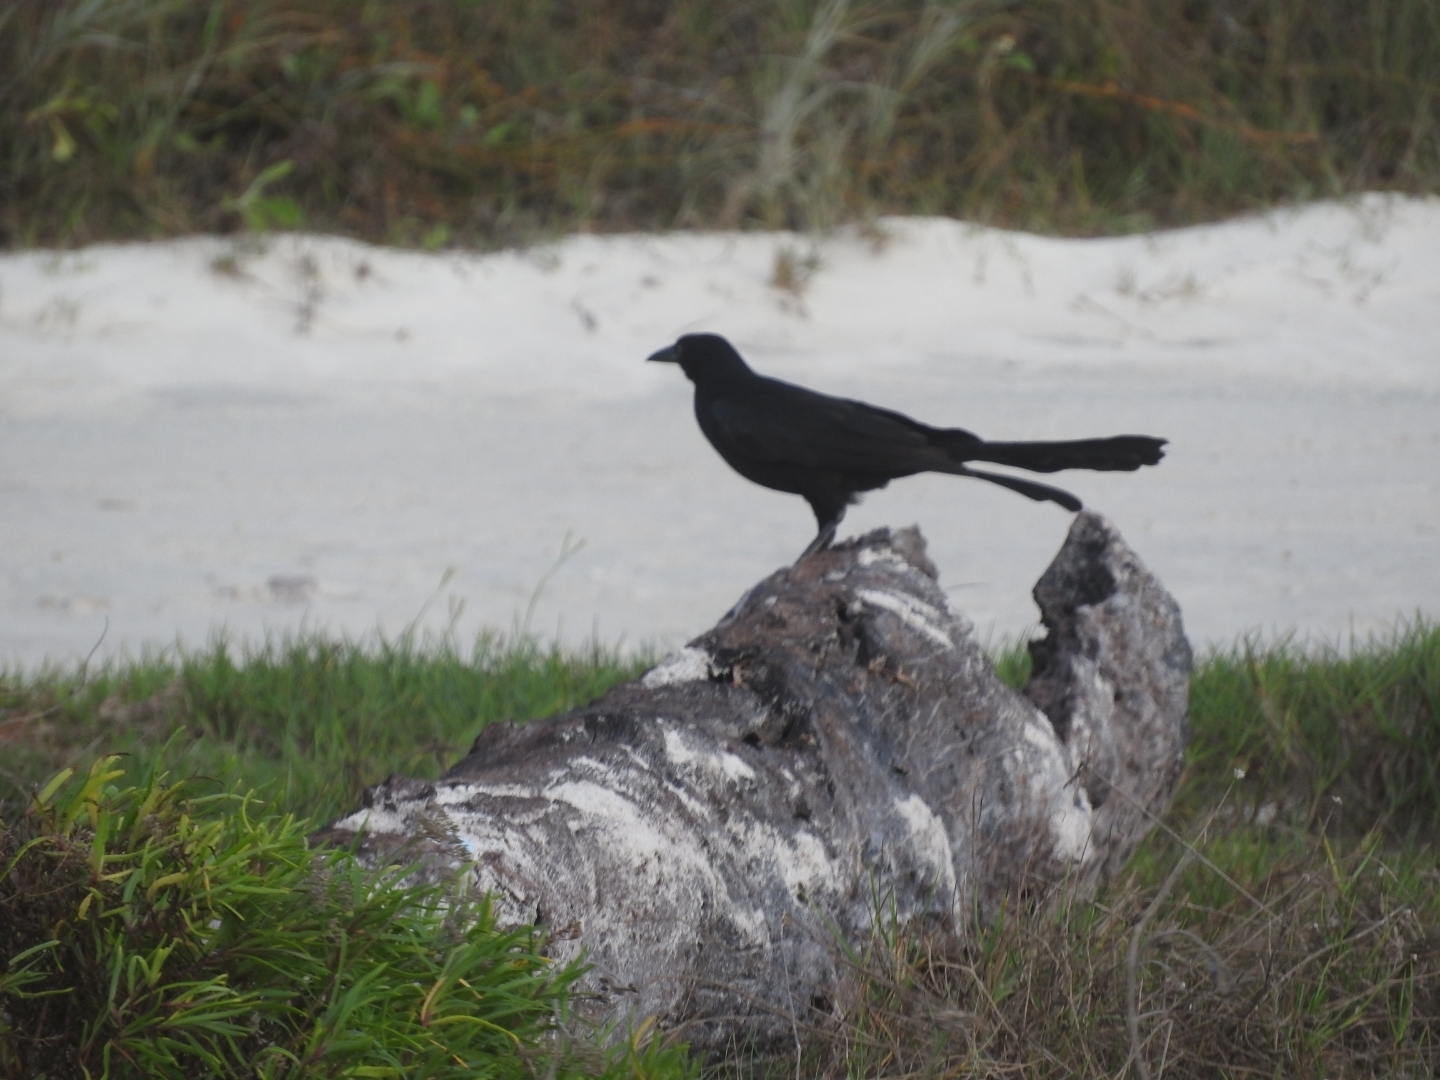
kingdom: Animalia
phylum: Chordata
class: Aves
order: Passeriformes
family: Icteridae
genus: Quiscalus
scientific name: Quiscalus mexicanus
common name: Great-tailed grackle
